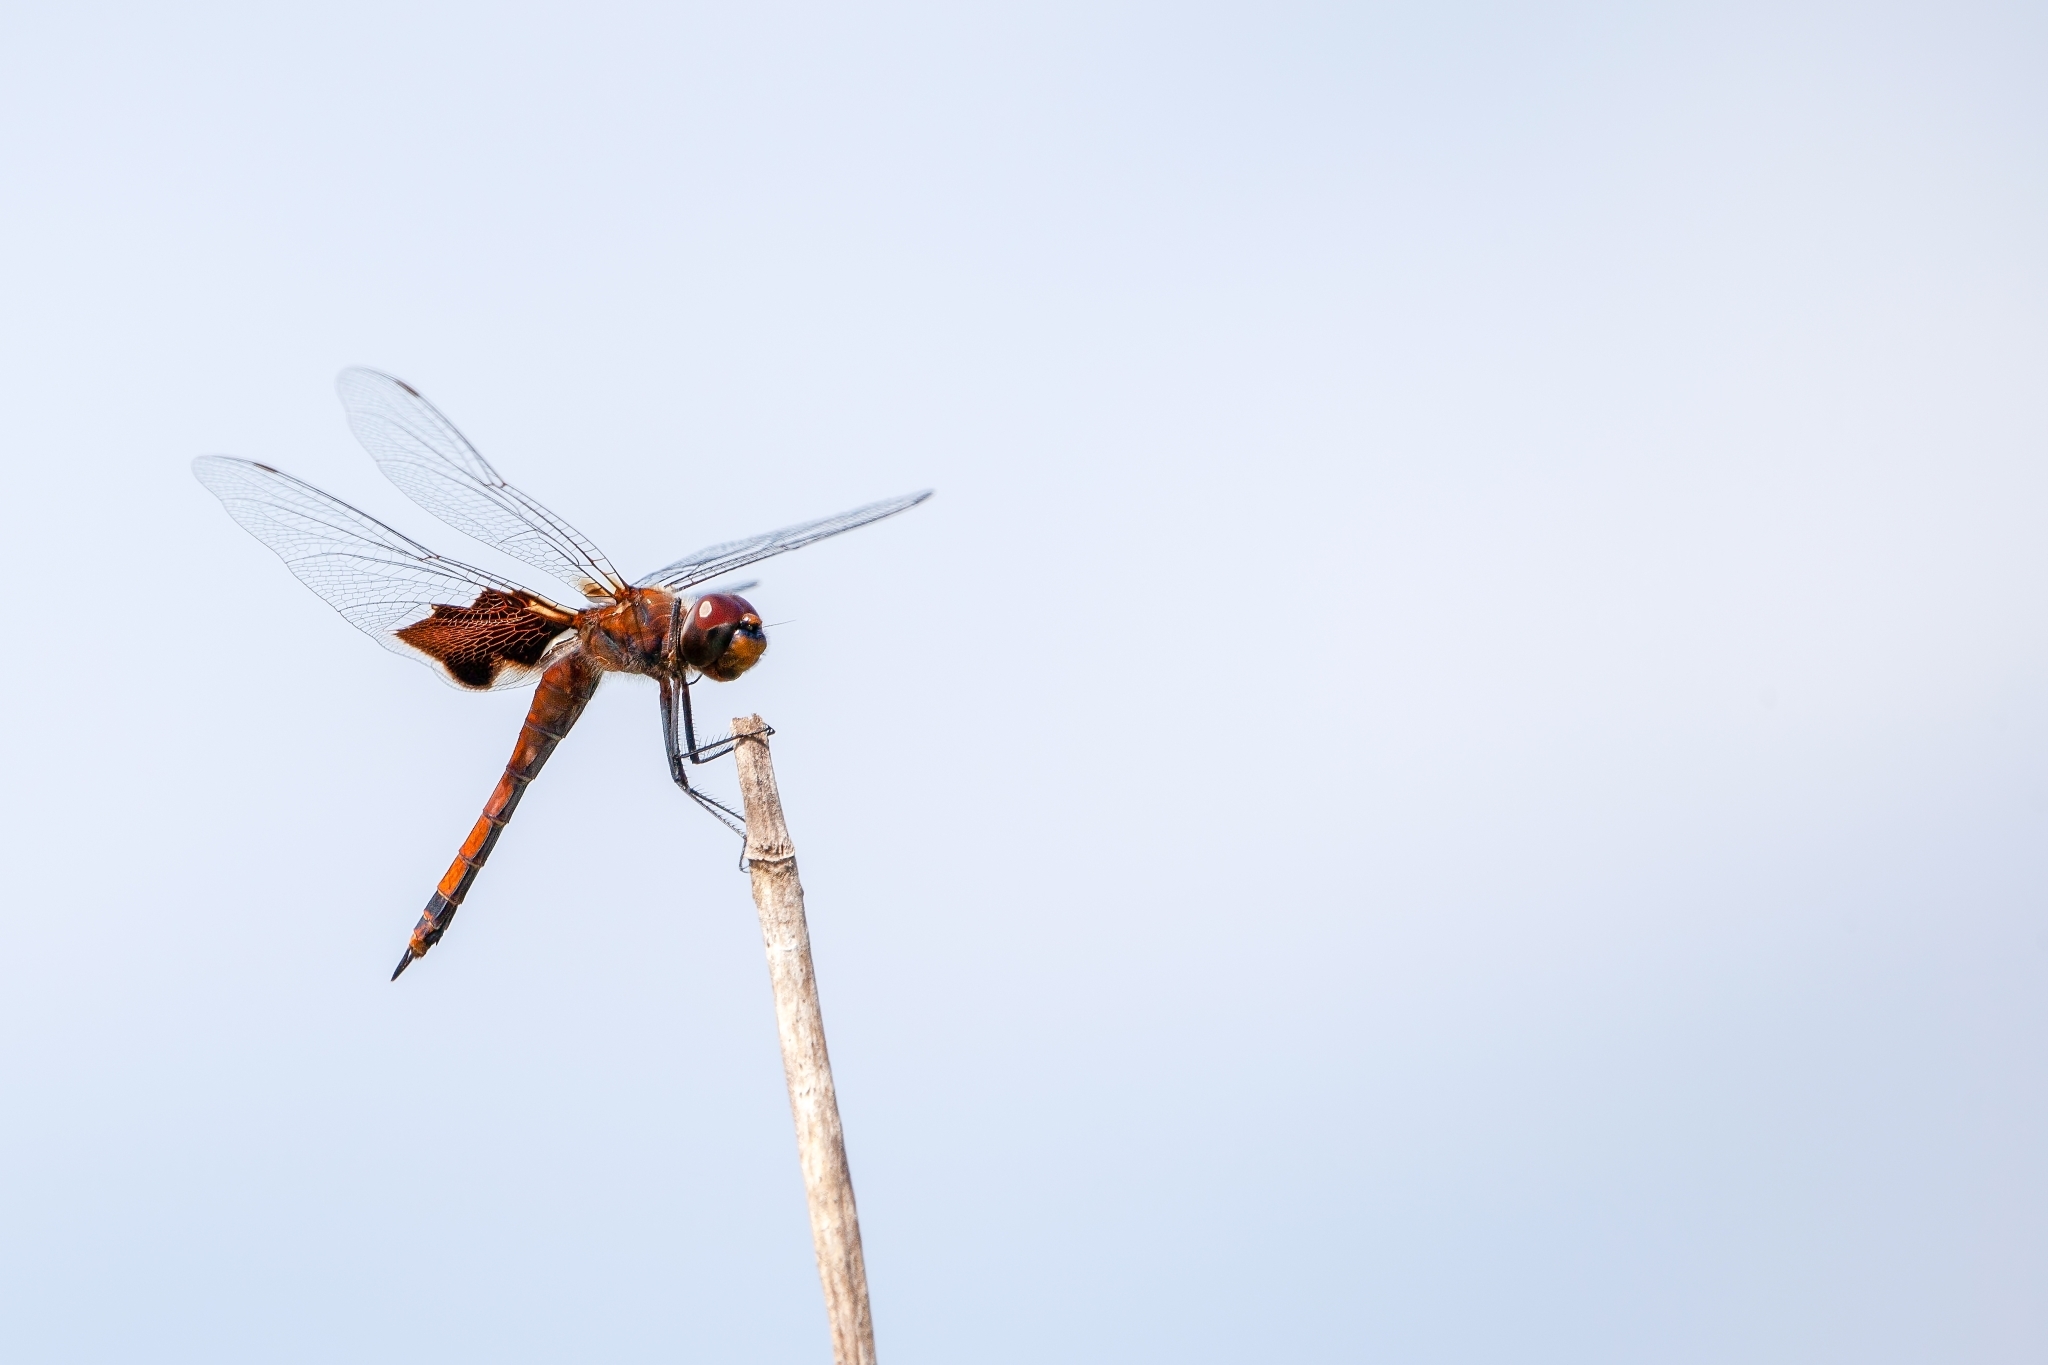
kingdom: Animalia
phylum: Arthropoda
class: Insecta
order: Odonata
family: Libellulidae
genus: Tramea
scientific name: Tramea carolina
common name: Carolina saddlebags
